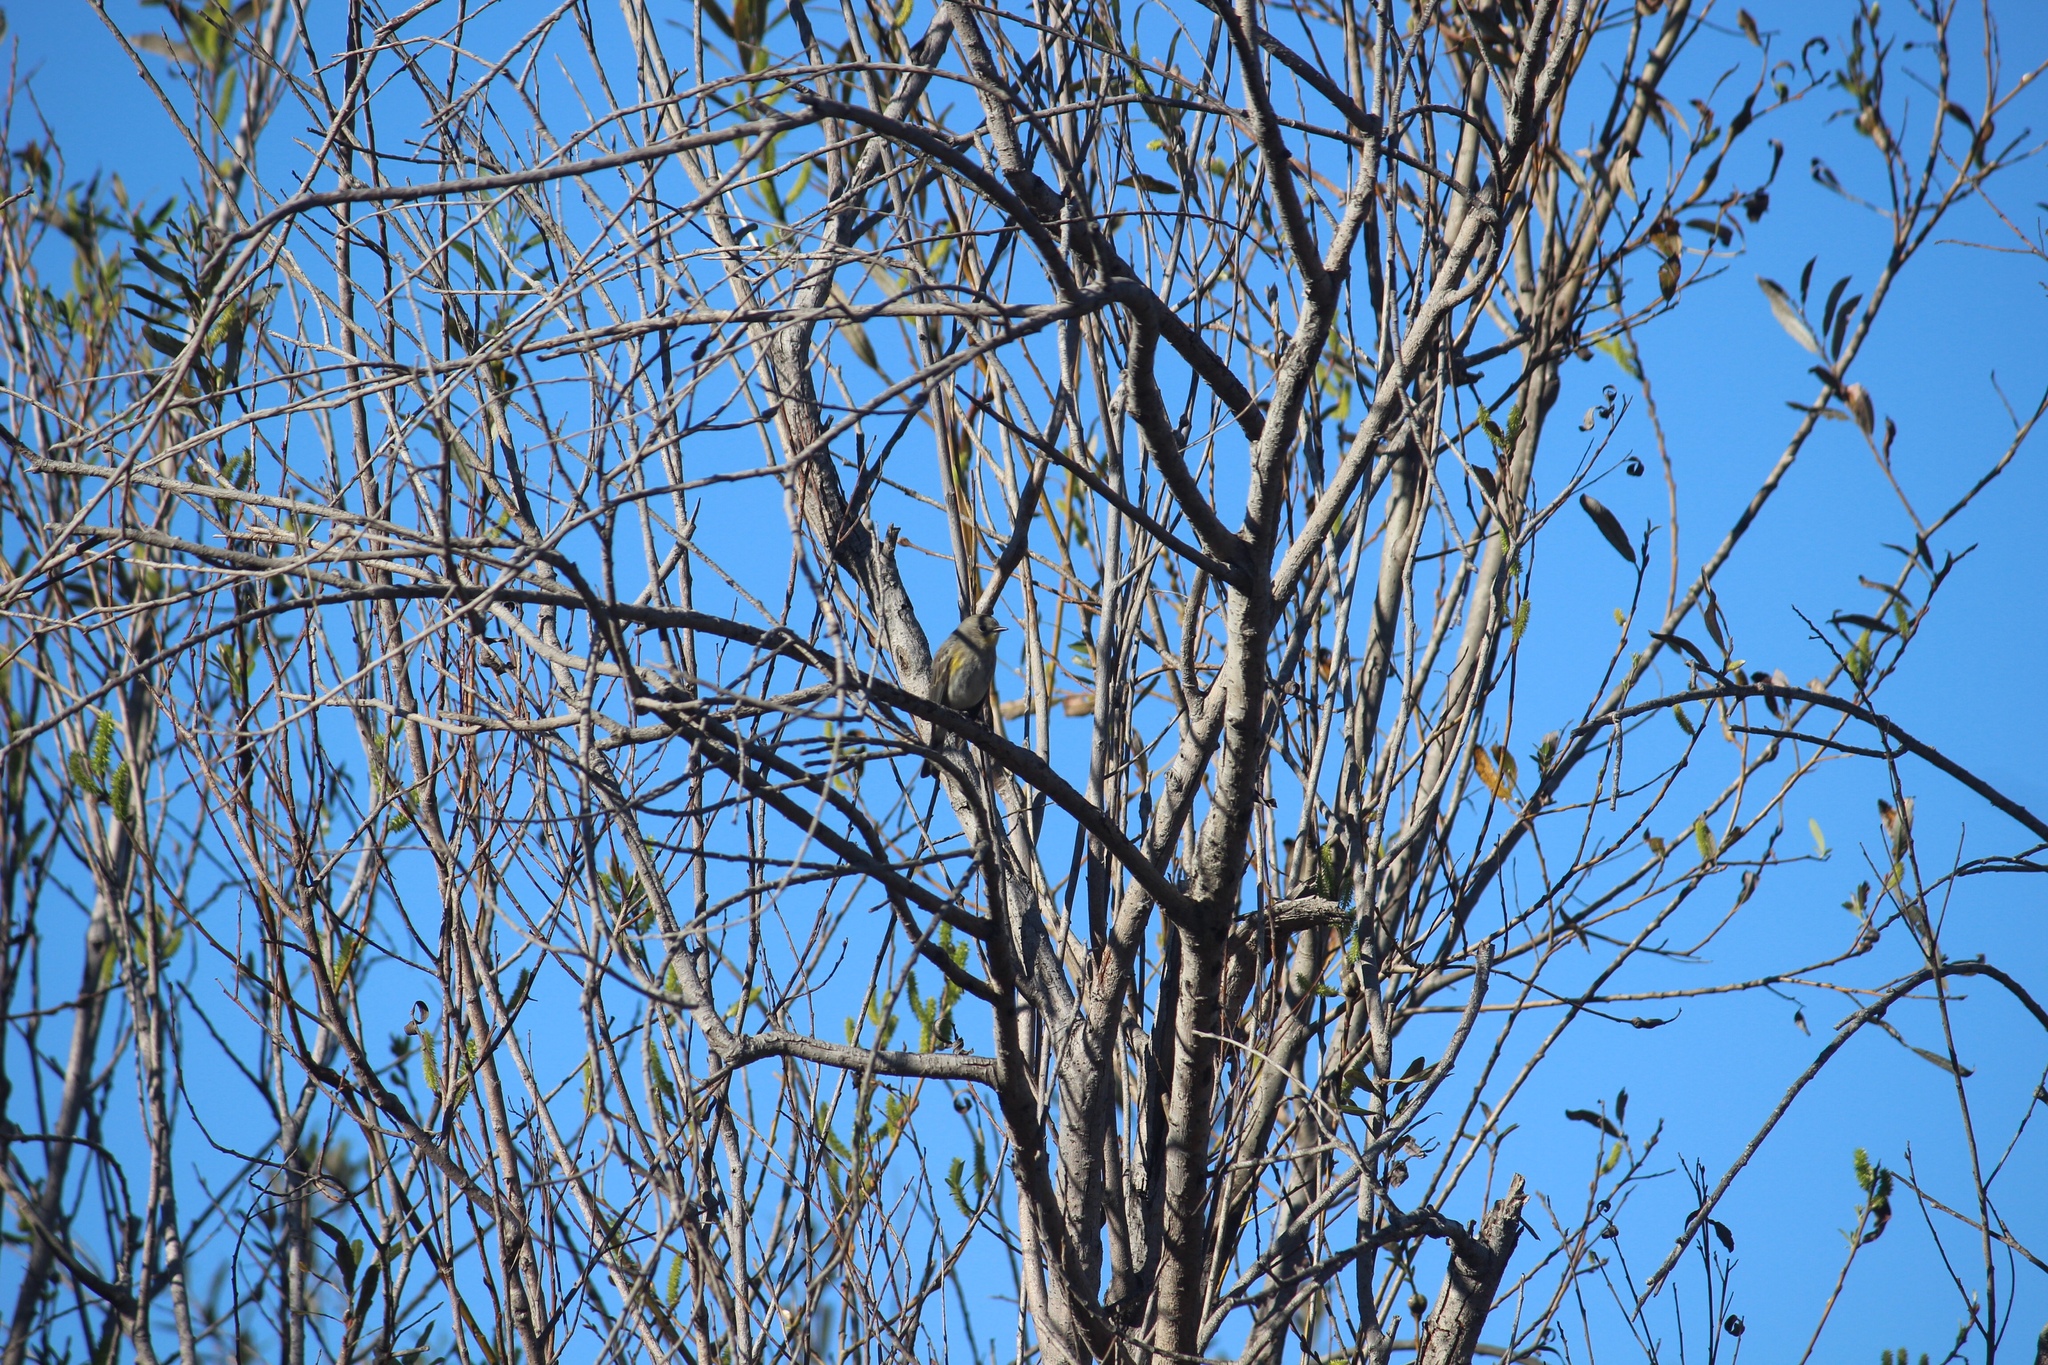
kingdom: Animalia
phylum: Chordata
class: Aves
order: Passeriformes
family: Parulidae
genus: Setophaga
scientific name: Setophaga coronata
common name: Myrtle warbler
